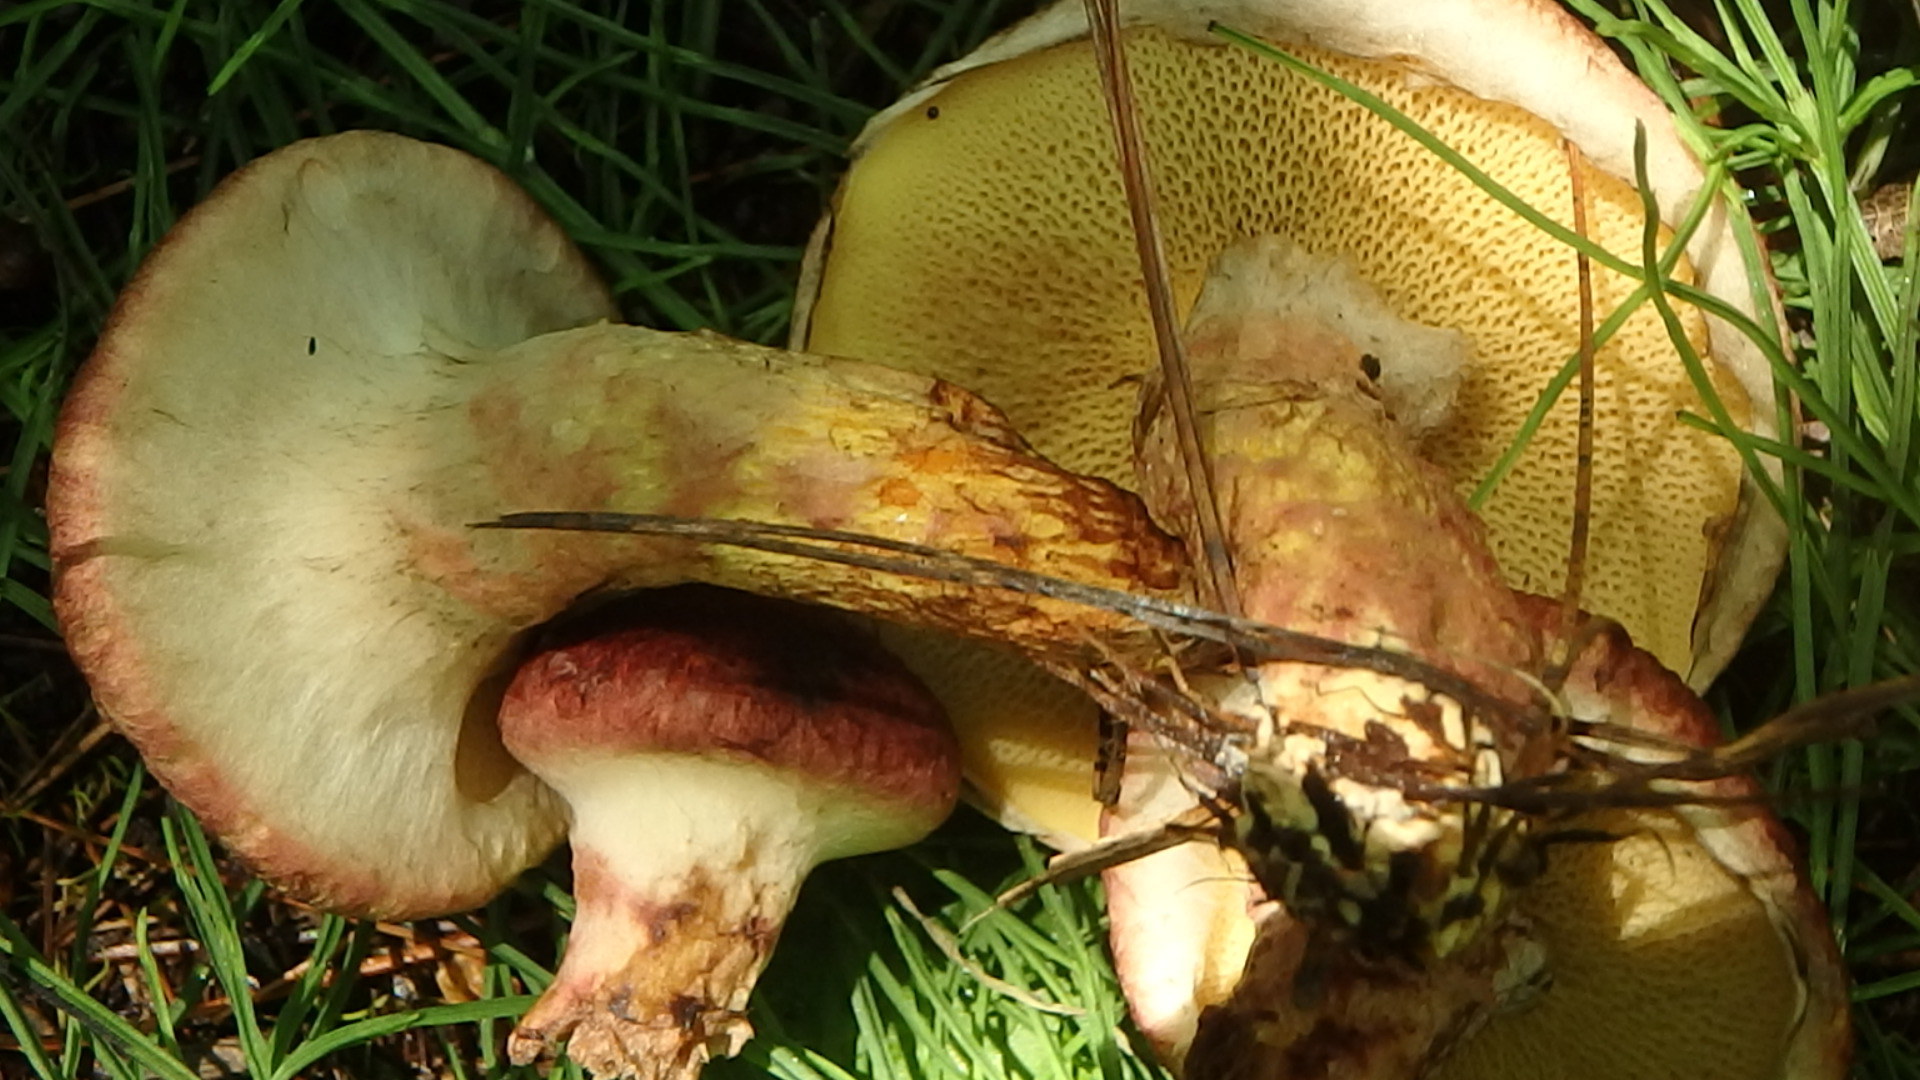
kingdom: Fungi
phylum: Basidiomycota
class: Agaricomycetes
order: Boletales
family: Suillaceae
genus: Suillus
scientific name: Suillus spraguei
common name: Painted suillus
